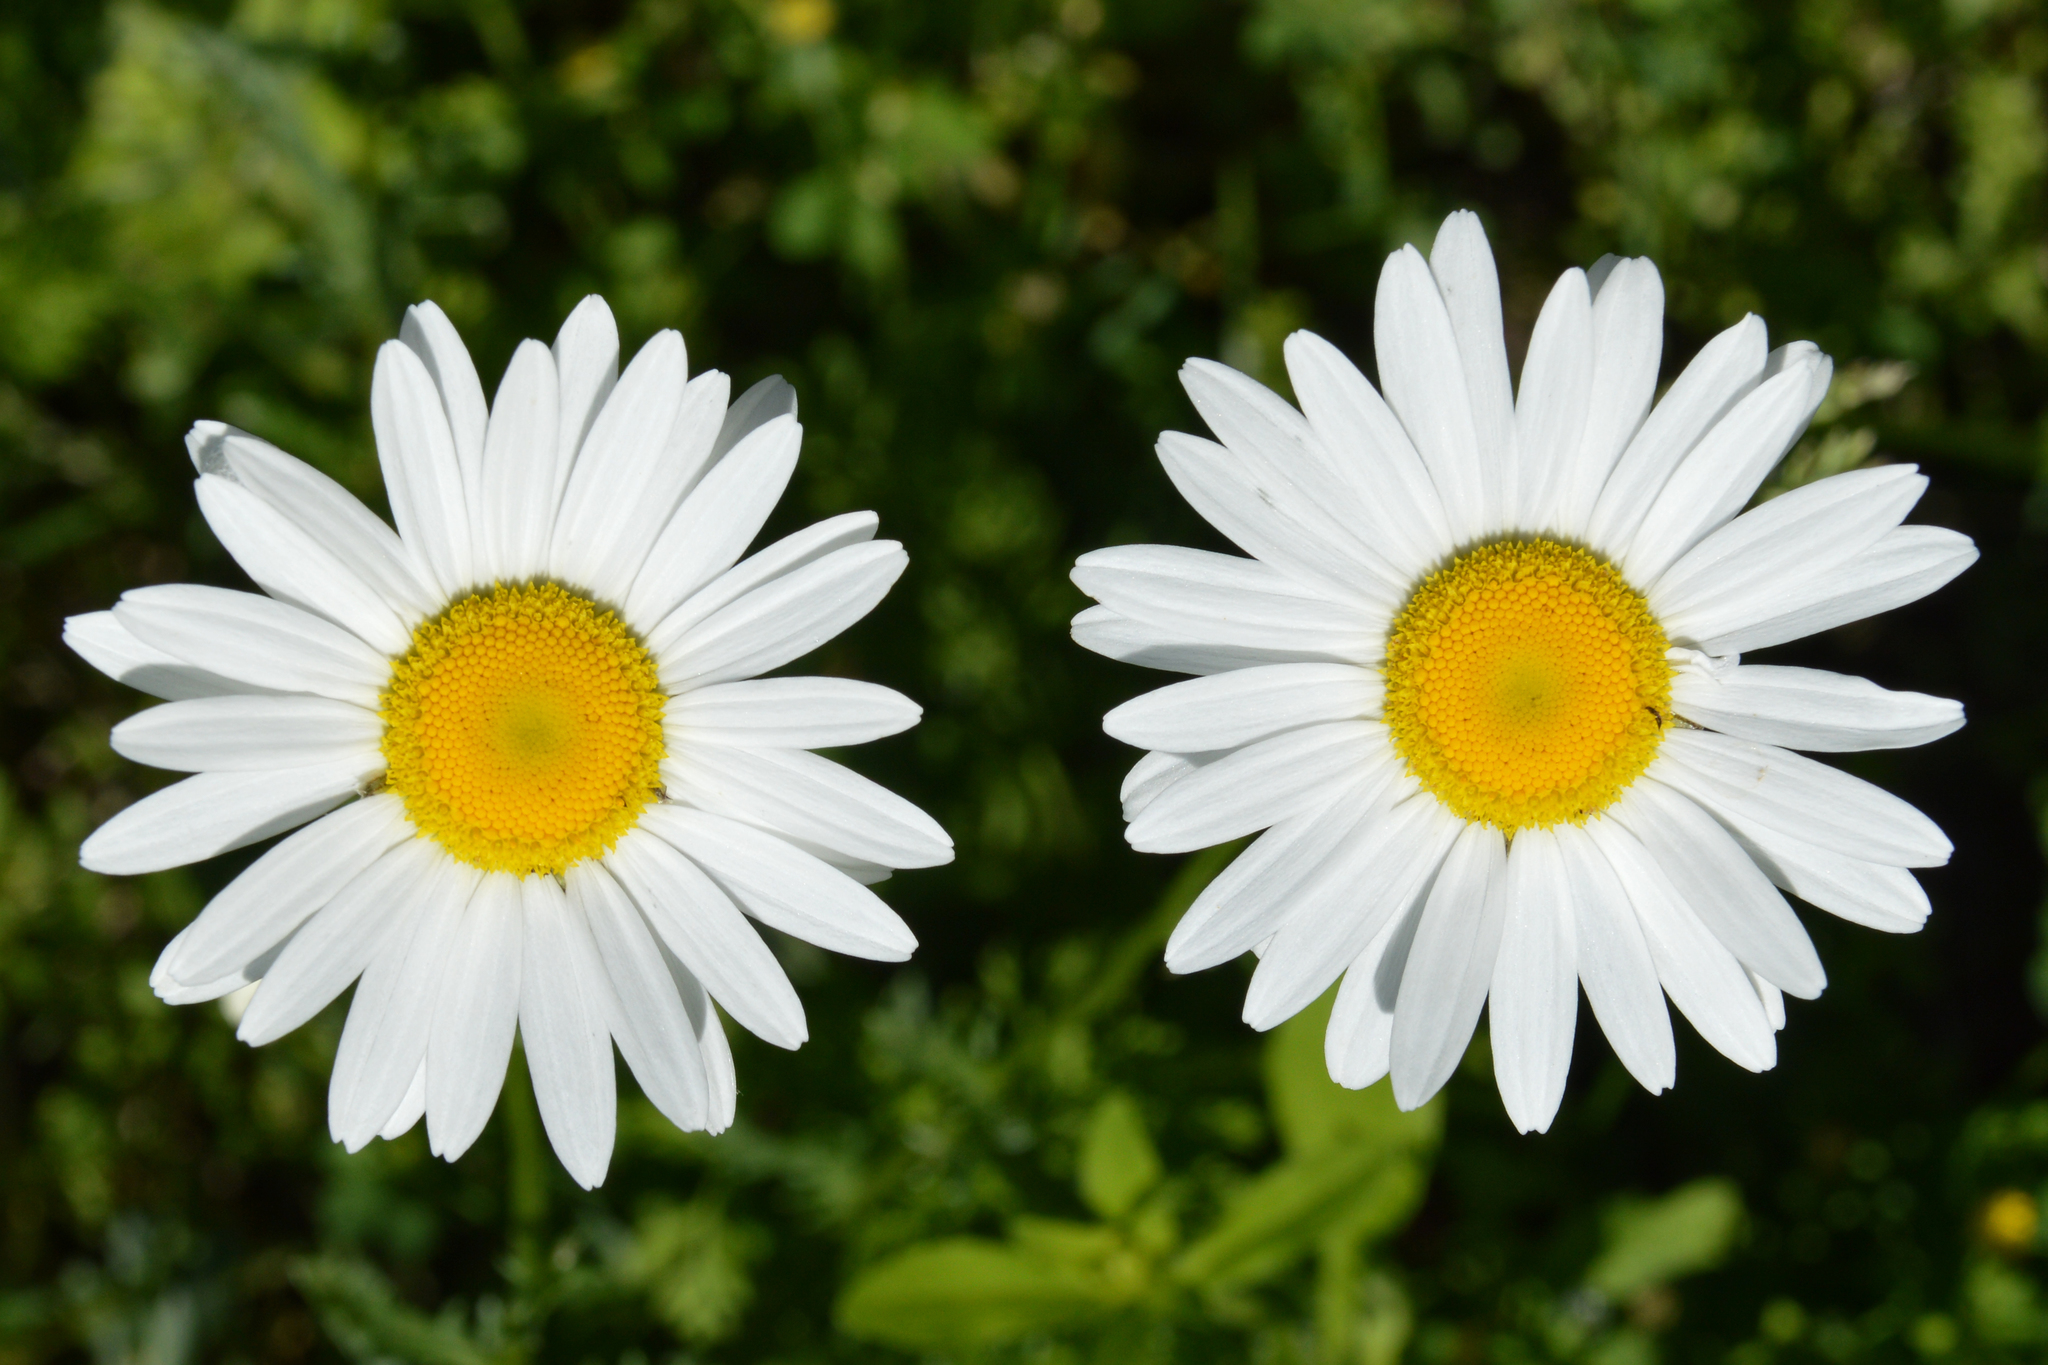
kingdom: Plantae
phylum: Tracheophyta
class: Magnoliopsida
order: Asterales
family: Asteraceae
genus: Leucanthemum
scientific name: Leucanthemum vulgare
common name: Oxeye daisy
